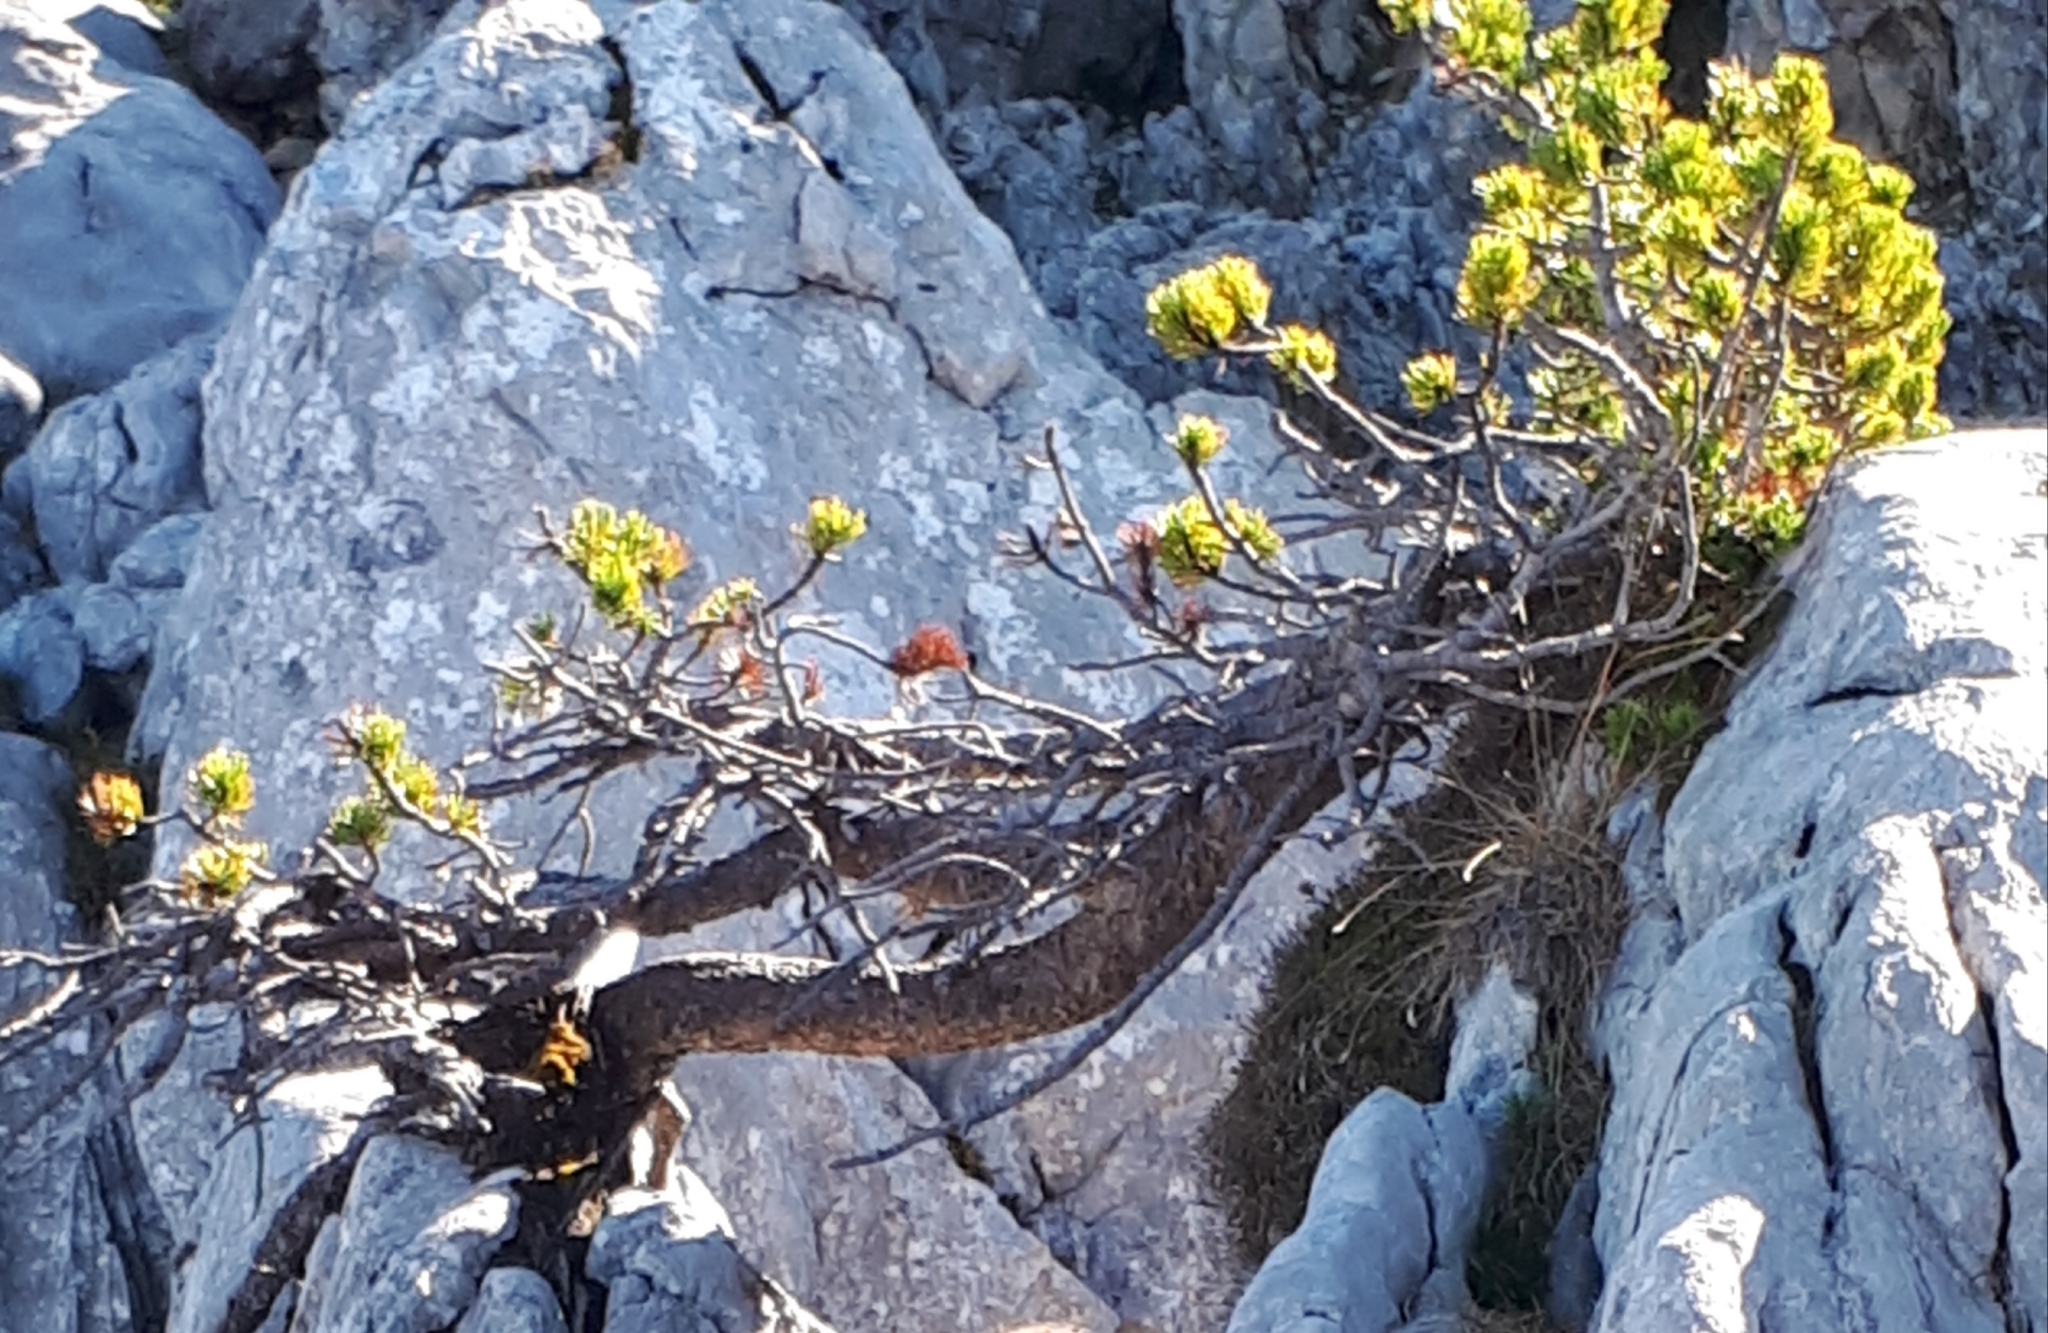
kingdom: Plantae
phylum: Tracheophyta
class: Pinopsida
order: Pinales
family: Pinaceae
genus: Pinus
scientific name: Pinus mugo
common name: Mugo pine
